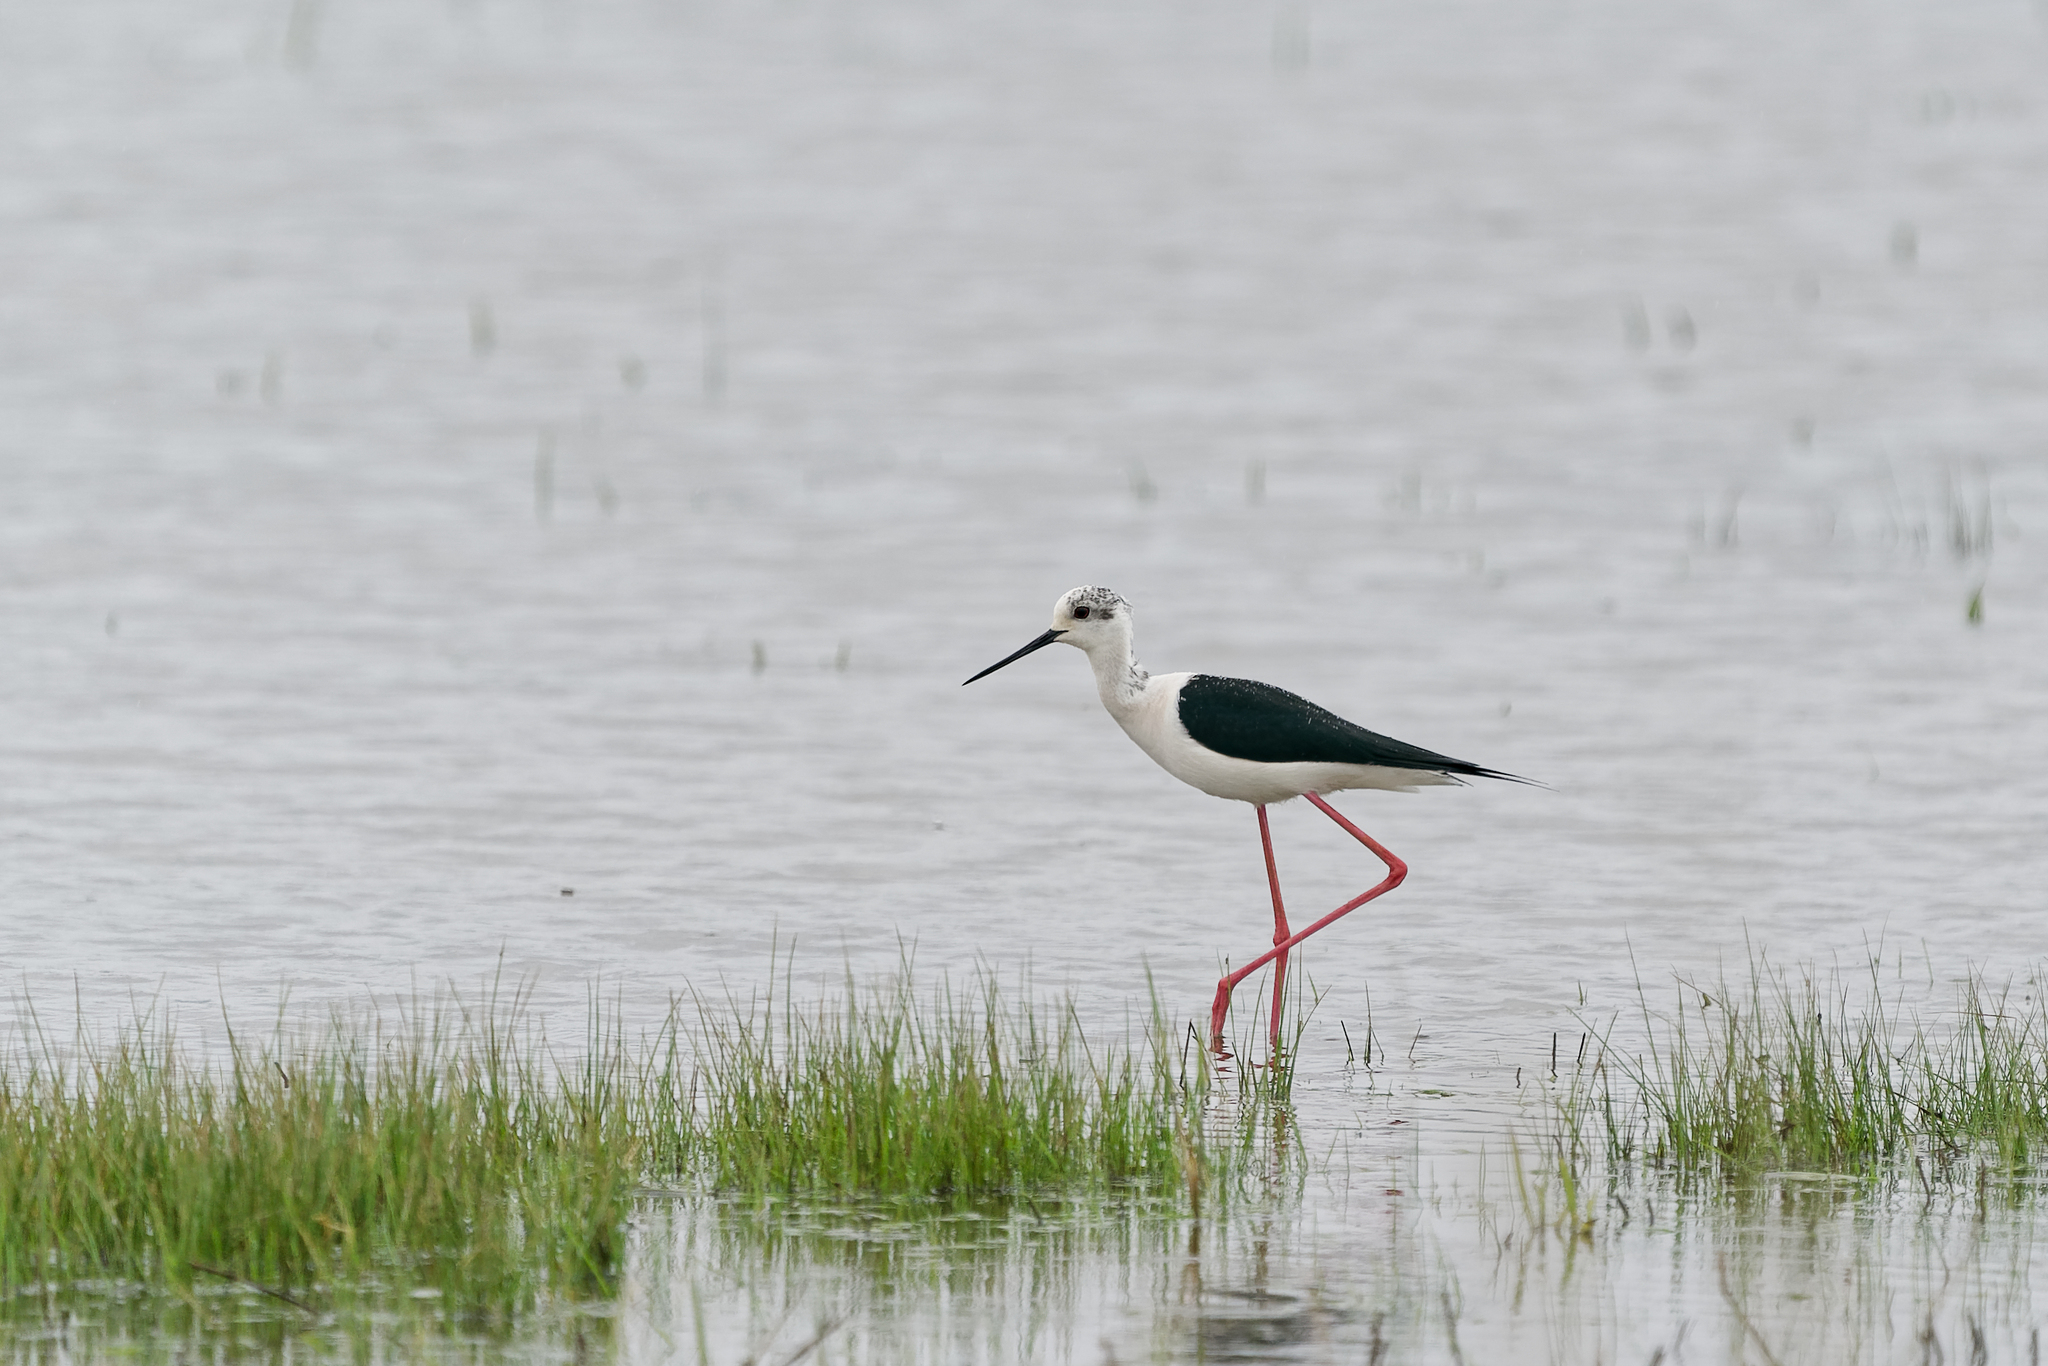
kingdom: Animalia
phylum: Chordata
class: Aves
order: Charadriiformes
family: Recurvirostridae
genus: Himantopus
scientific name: Himantopus himantopus
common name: Black-winged stilt
